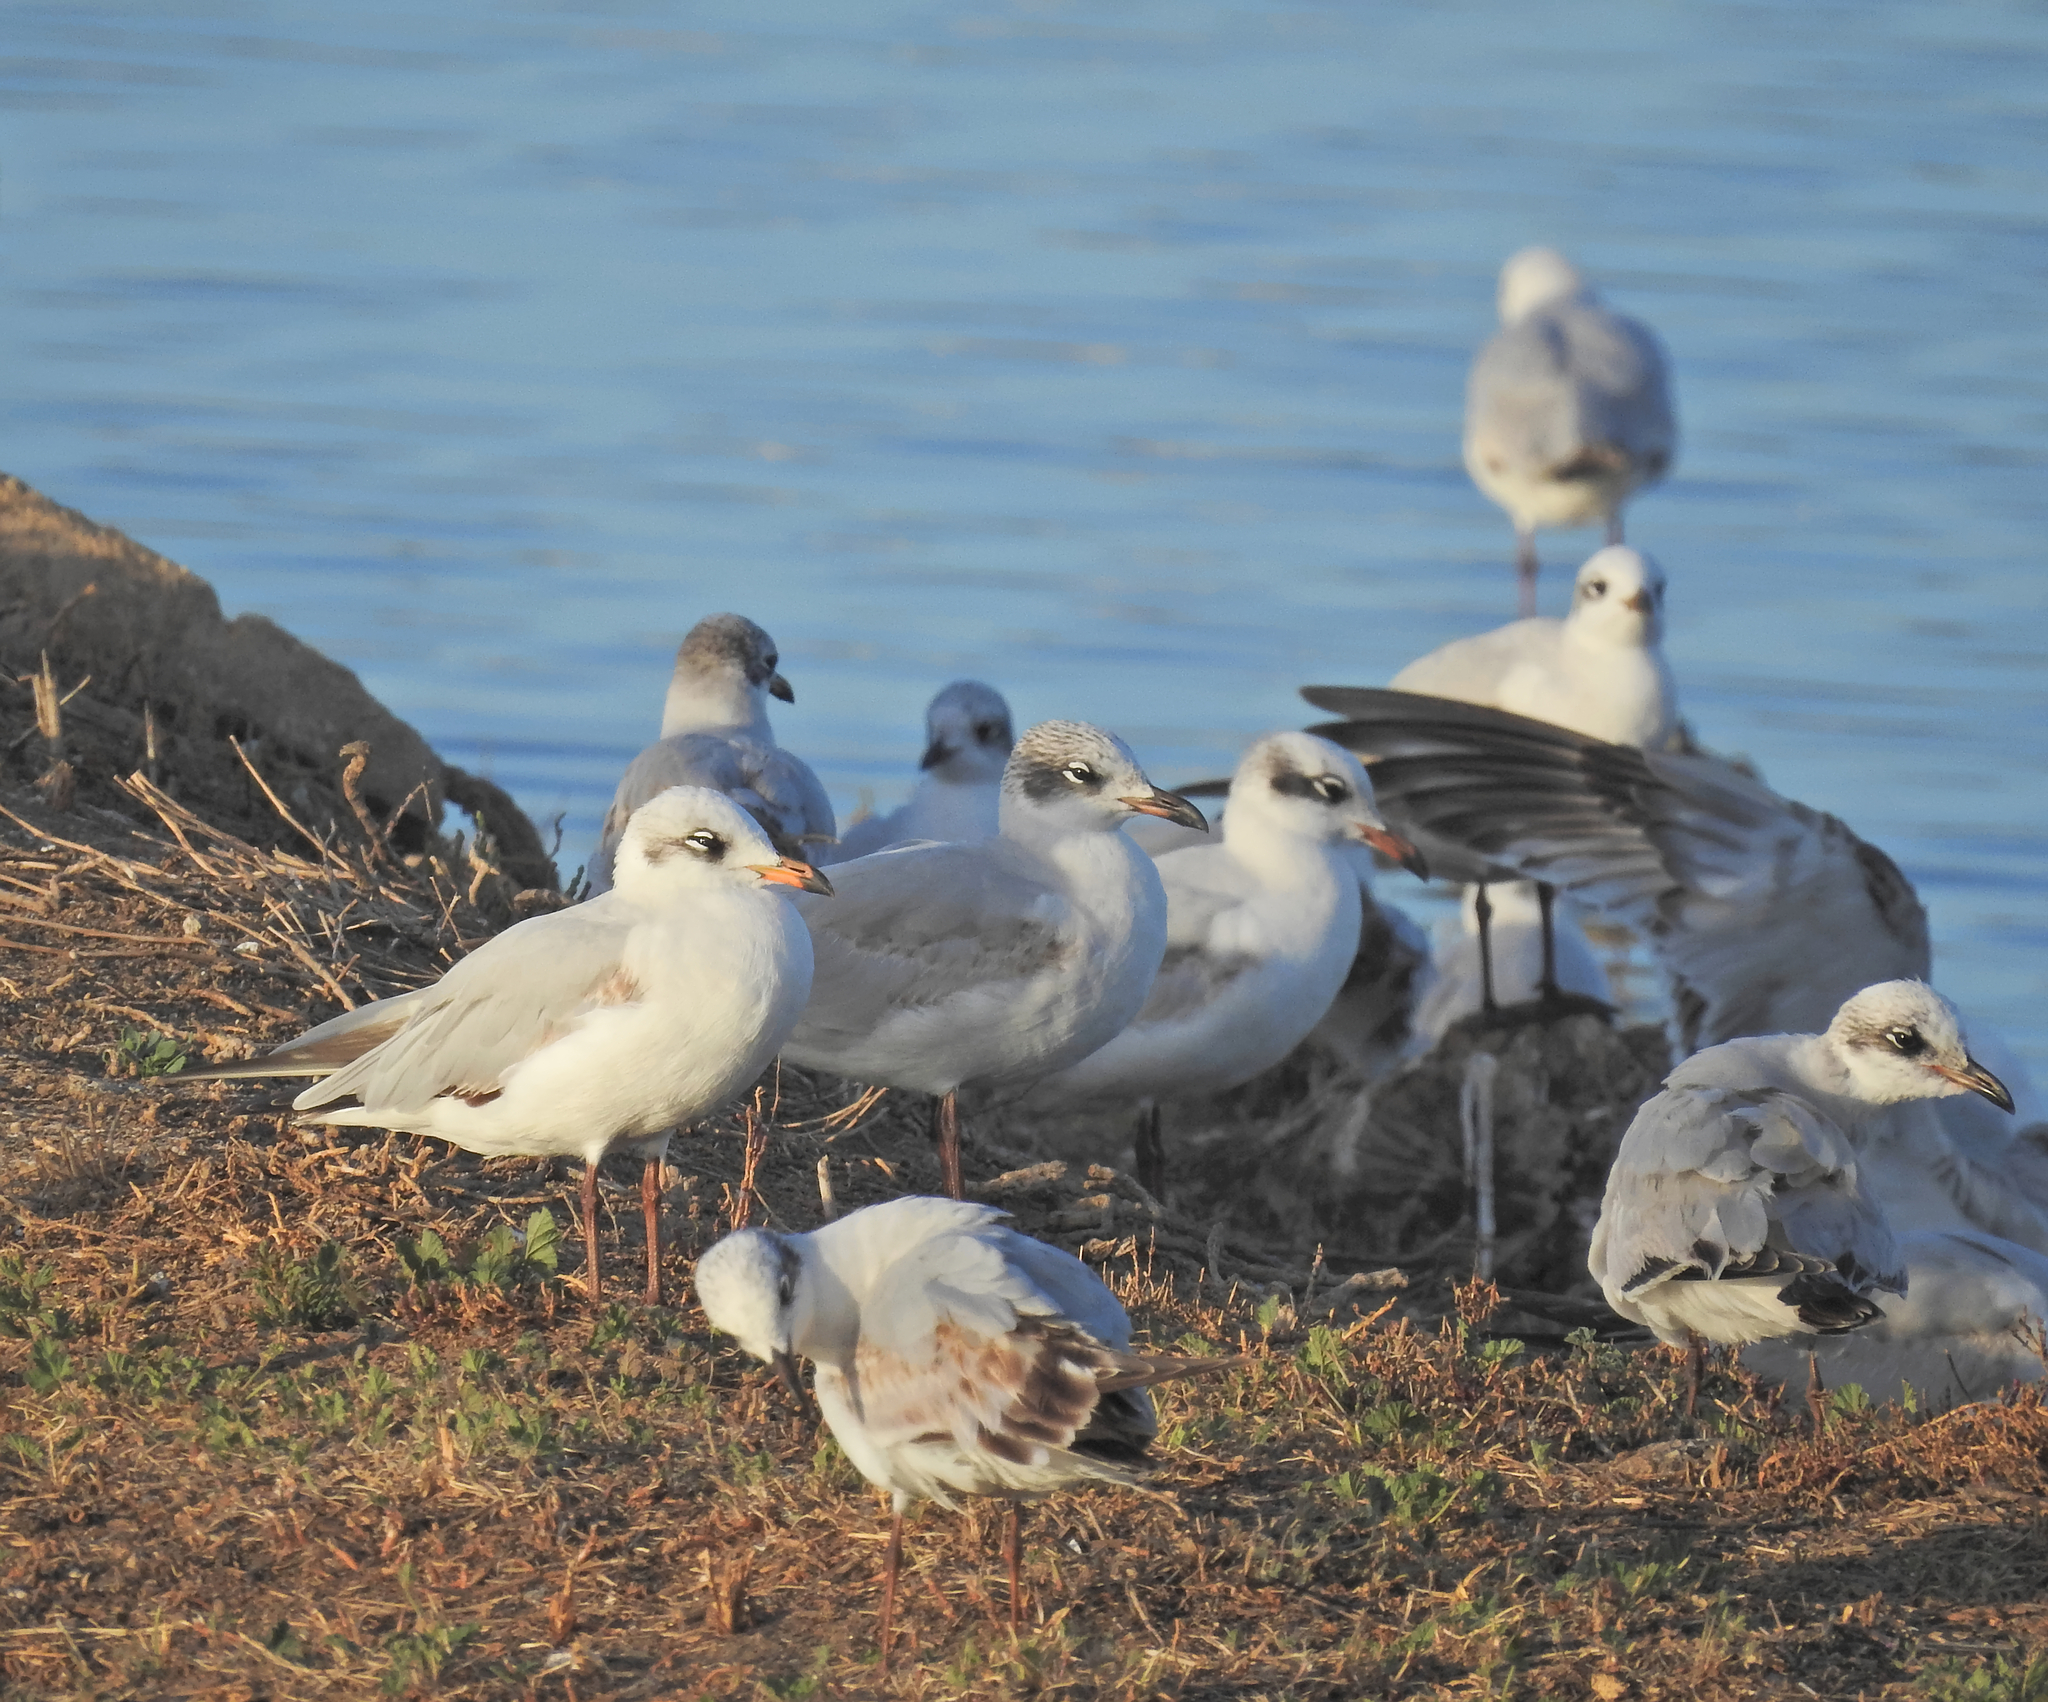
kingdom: Animalia
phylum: Chordata
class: Aves
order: Charadriiformes
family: Laridae
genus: Ichthyaetus
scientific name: Ichthyaetus melanocephalus
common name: Mediterranean gull
